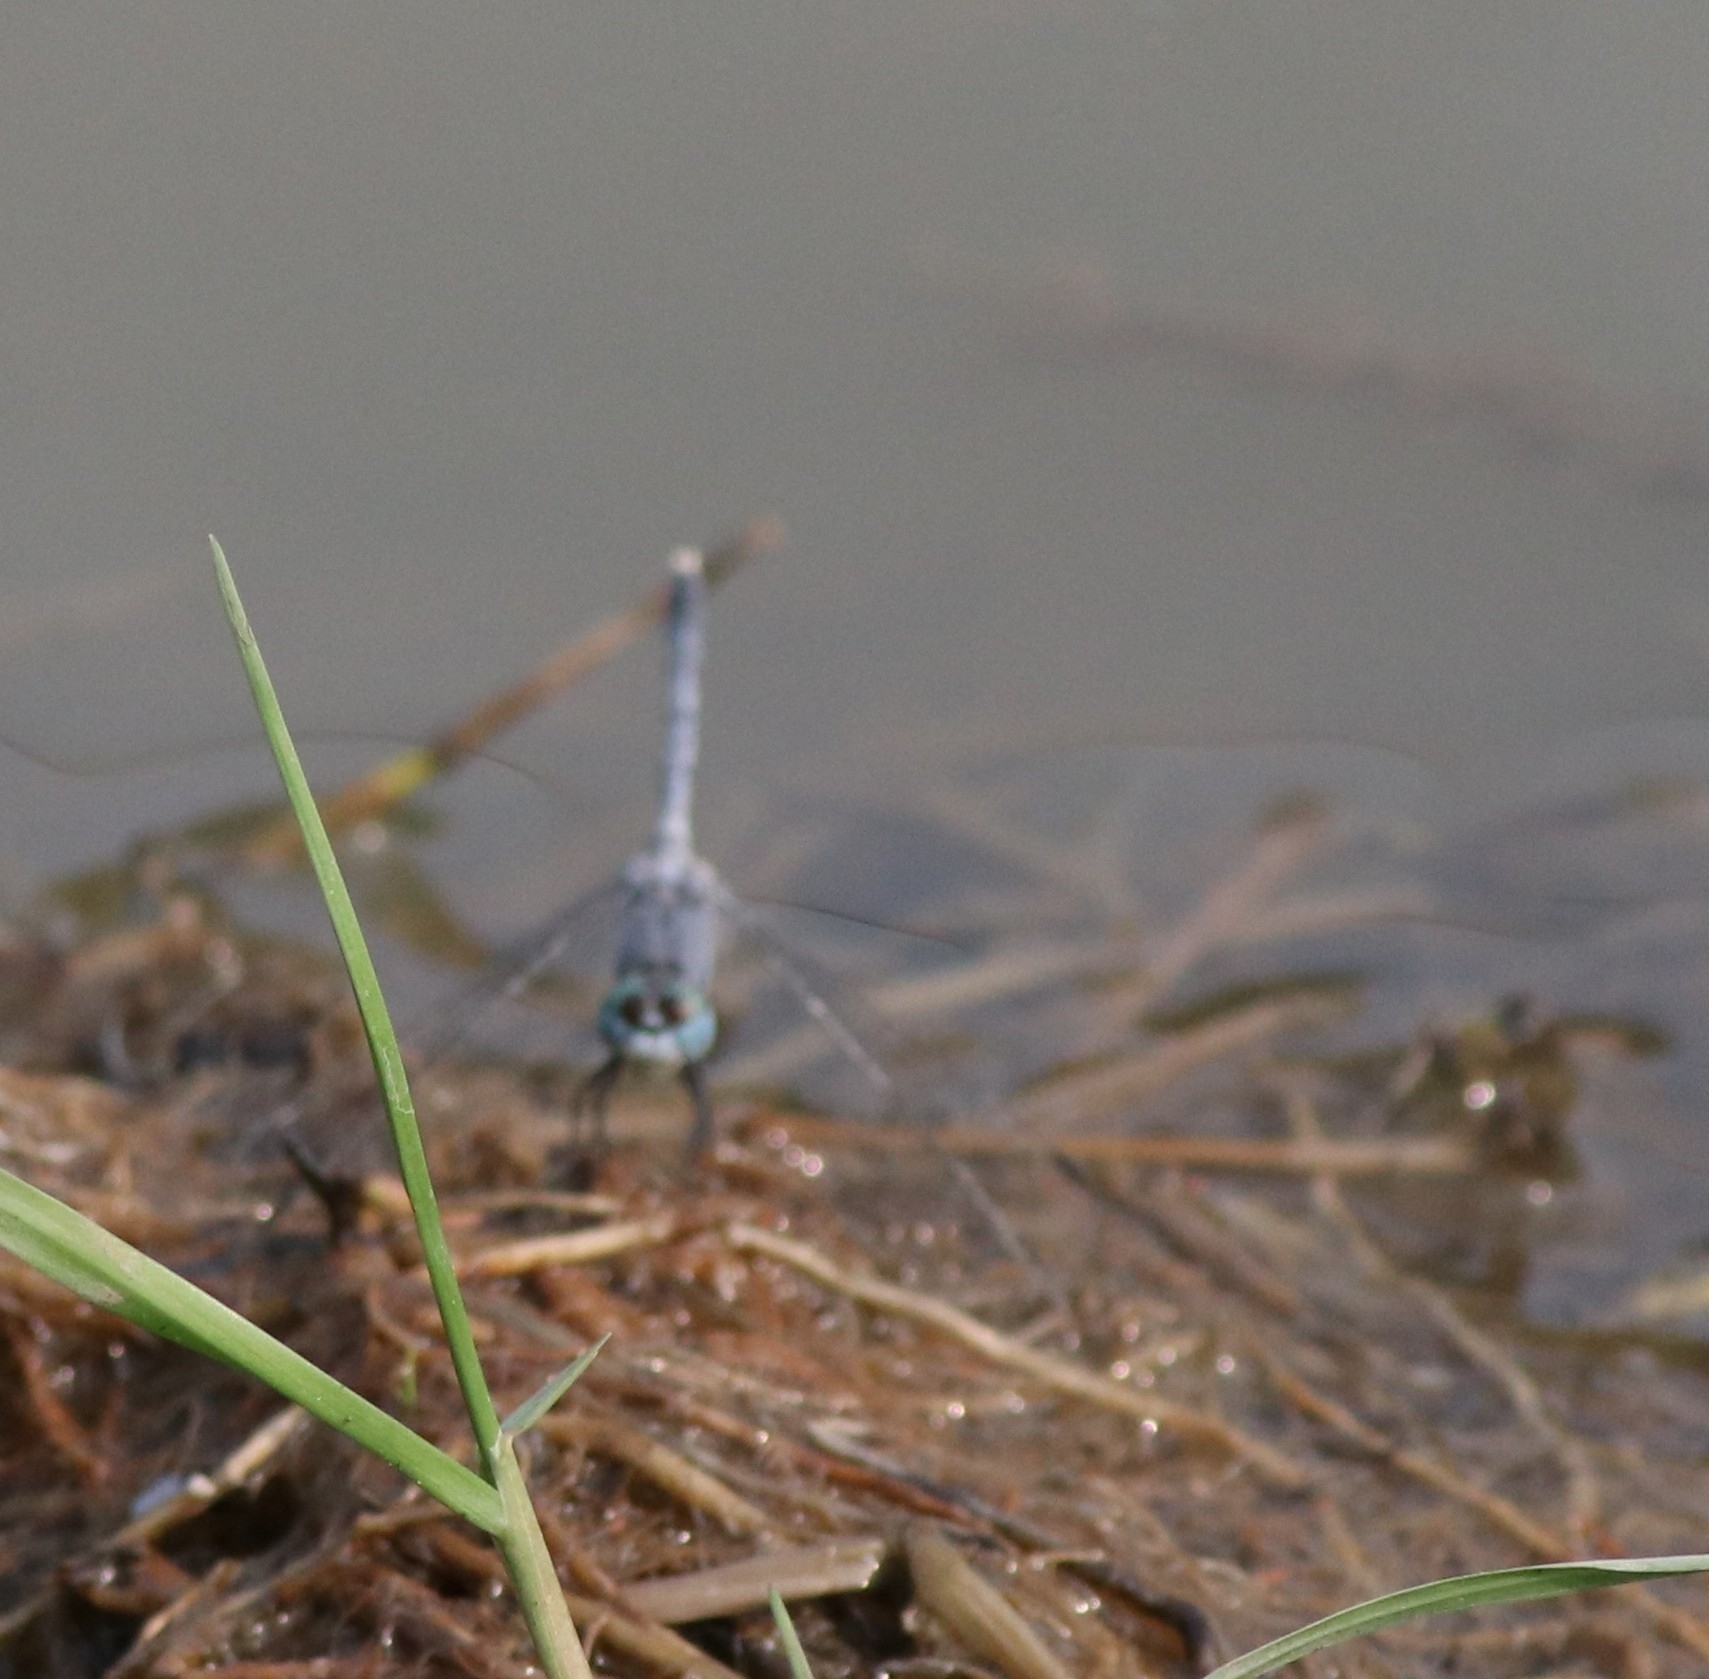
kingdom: Animalia
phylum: Arthropoda
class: Insecta
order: Odonata
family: Libellulidae
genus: Diplacodes
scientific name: Diplacodes trivialis
